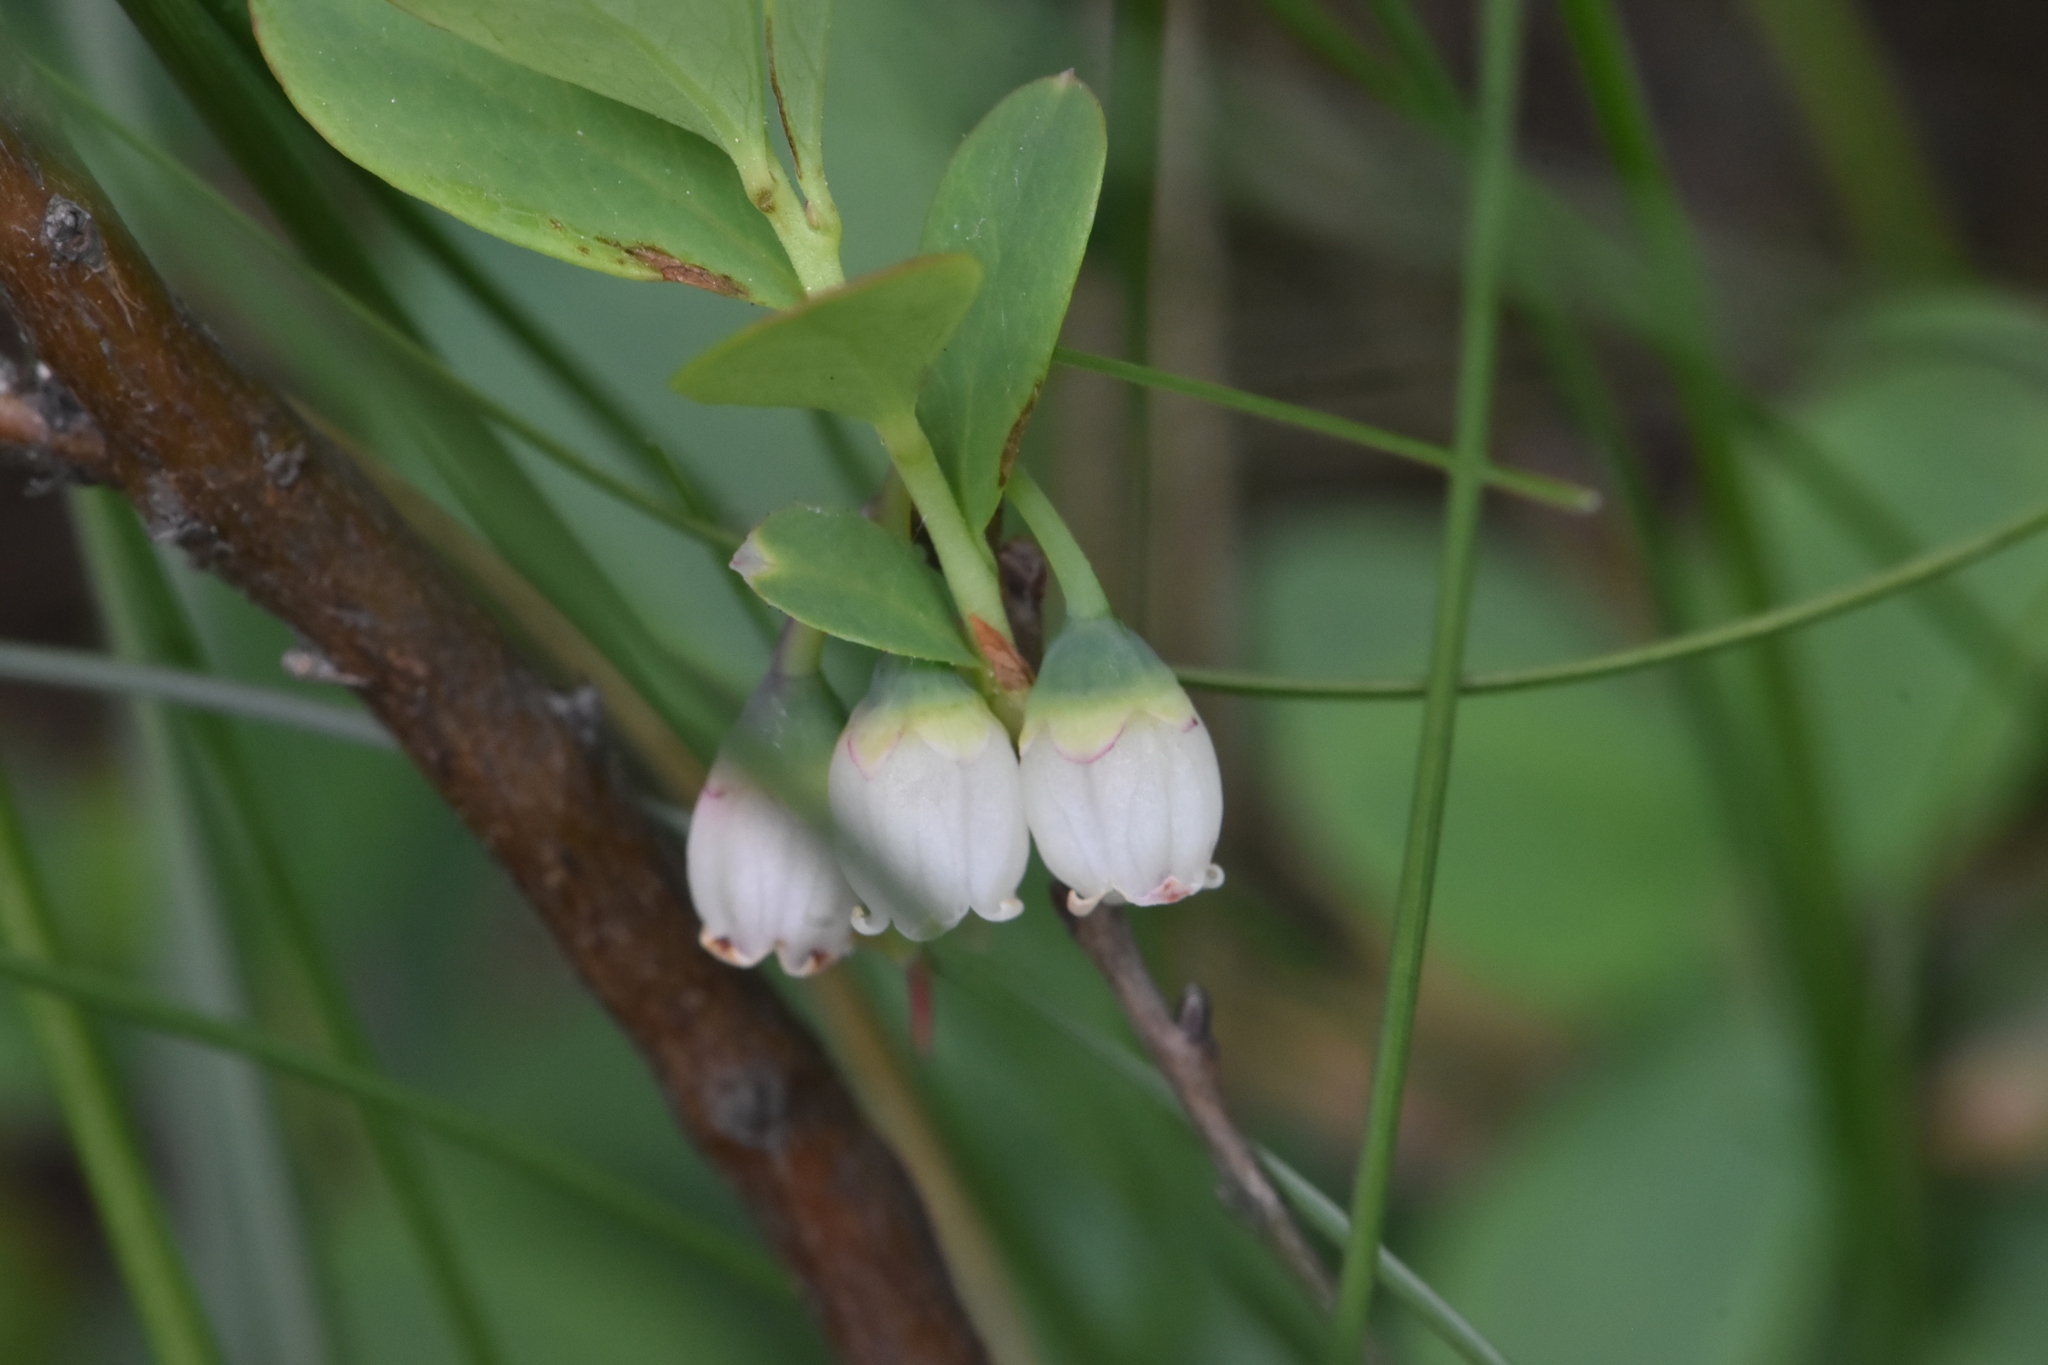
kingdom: Plantae
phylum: Tracheophyta
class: Magnoliopsida
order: Ericales
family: Ericaceae
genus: Vaccinium
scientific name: Vaccinium uliginosum
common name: Bog bilberry
